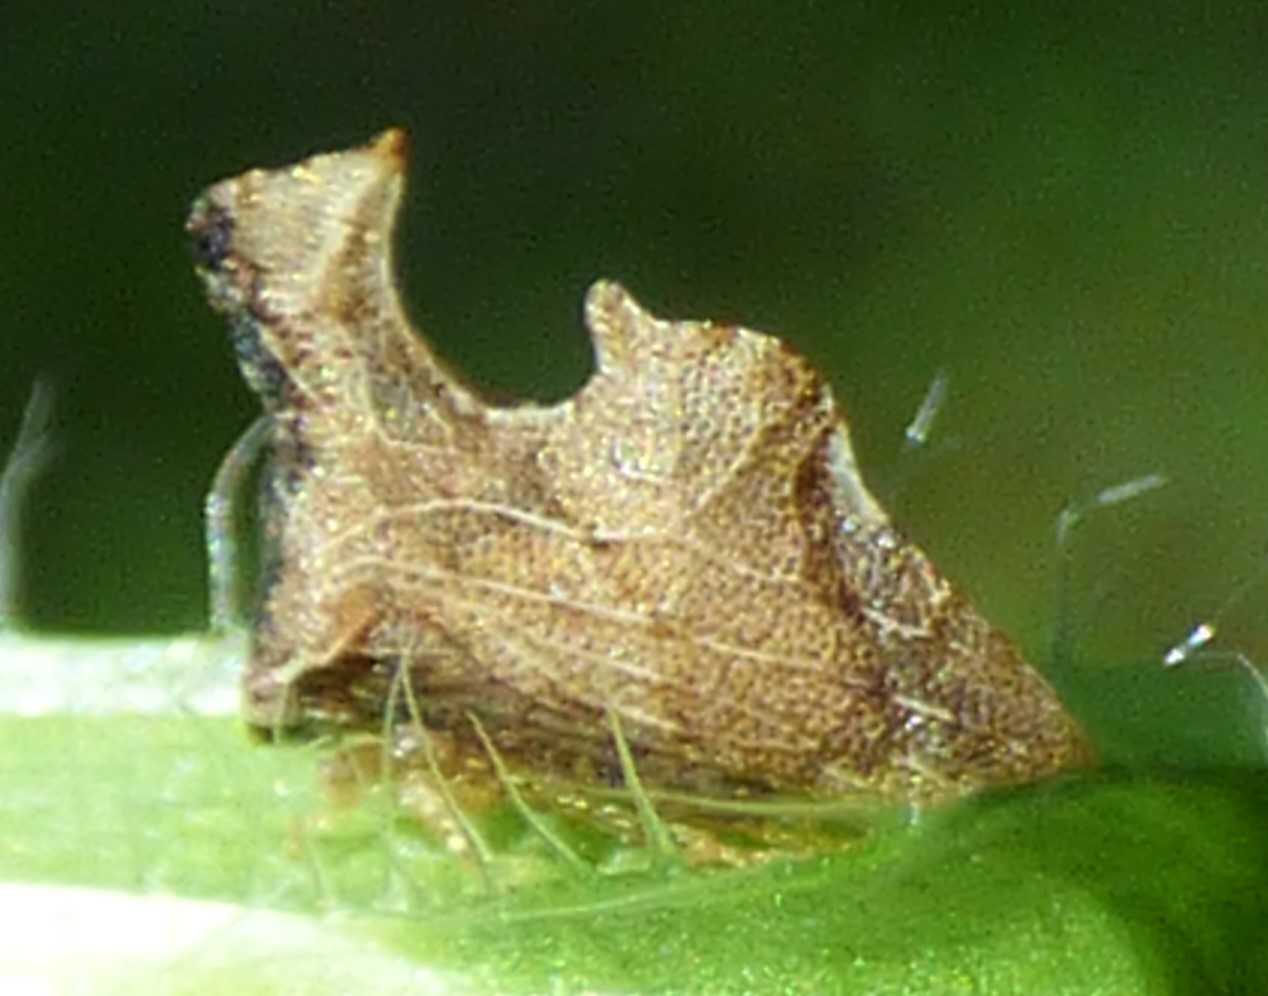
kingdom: Animalia
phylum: Arthropoda
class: Insecta
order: Hemiptera
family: Membracidae
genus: Entylia
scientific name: Entylia carinata
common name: Keeled treehopper
